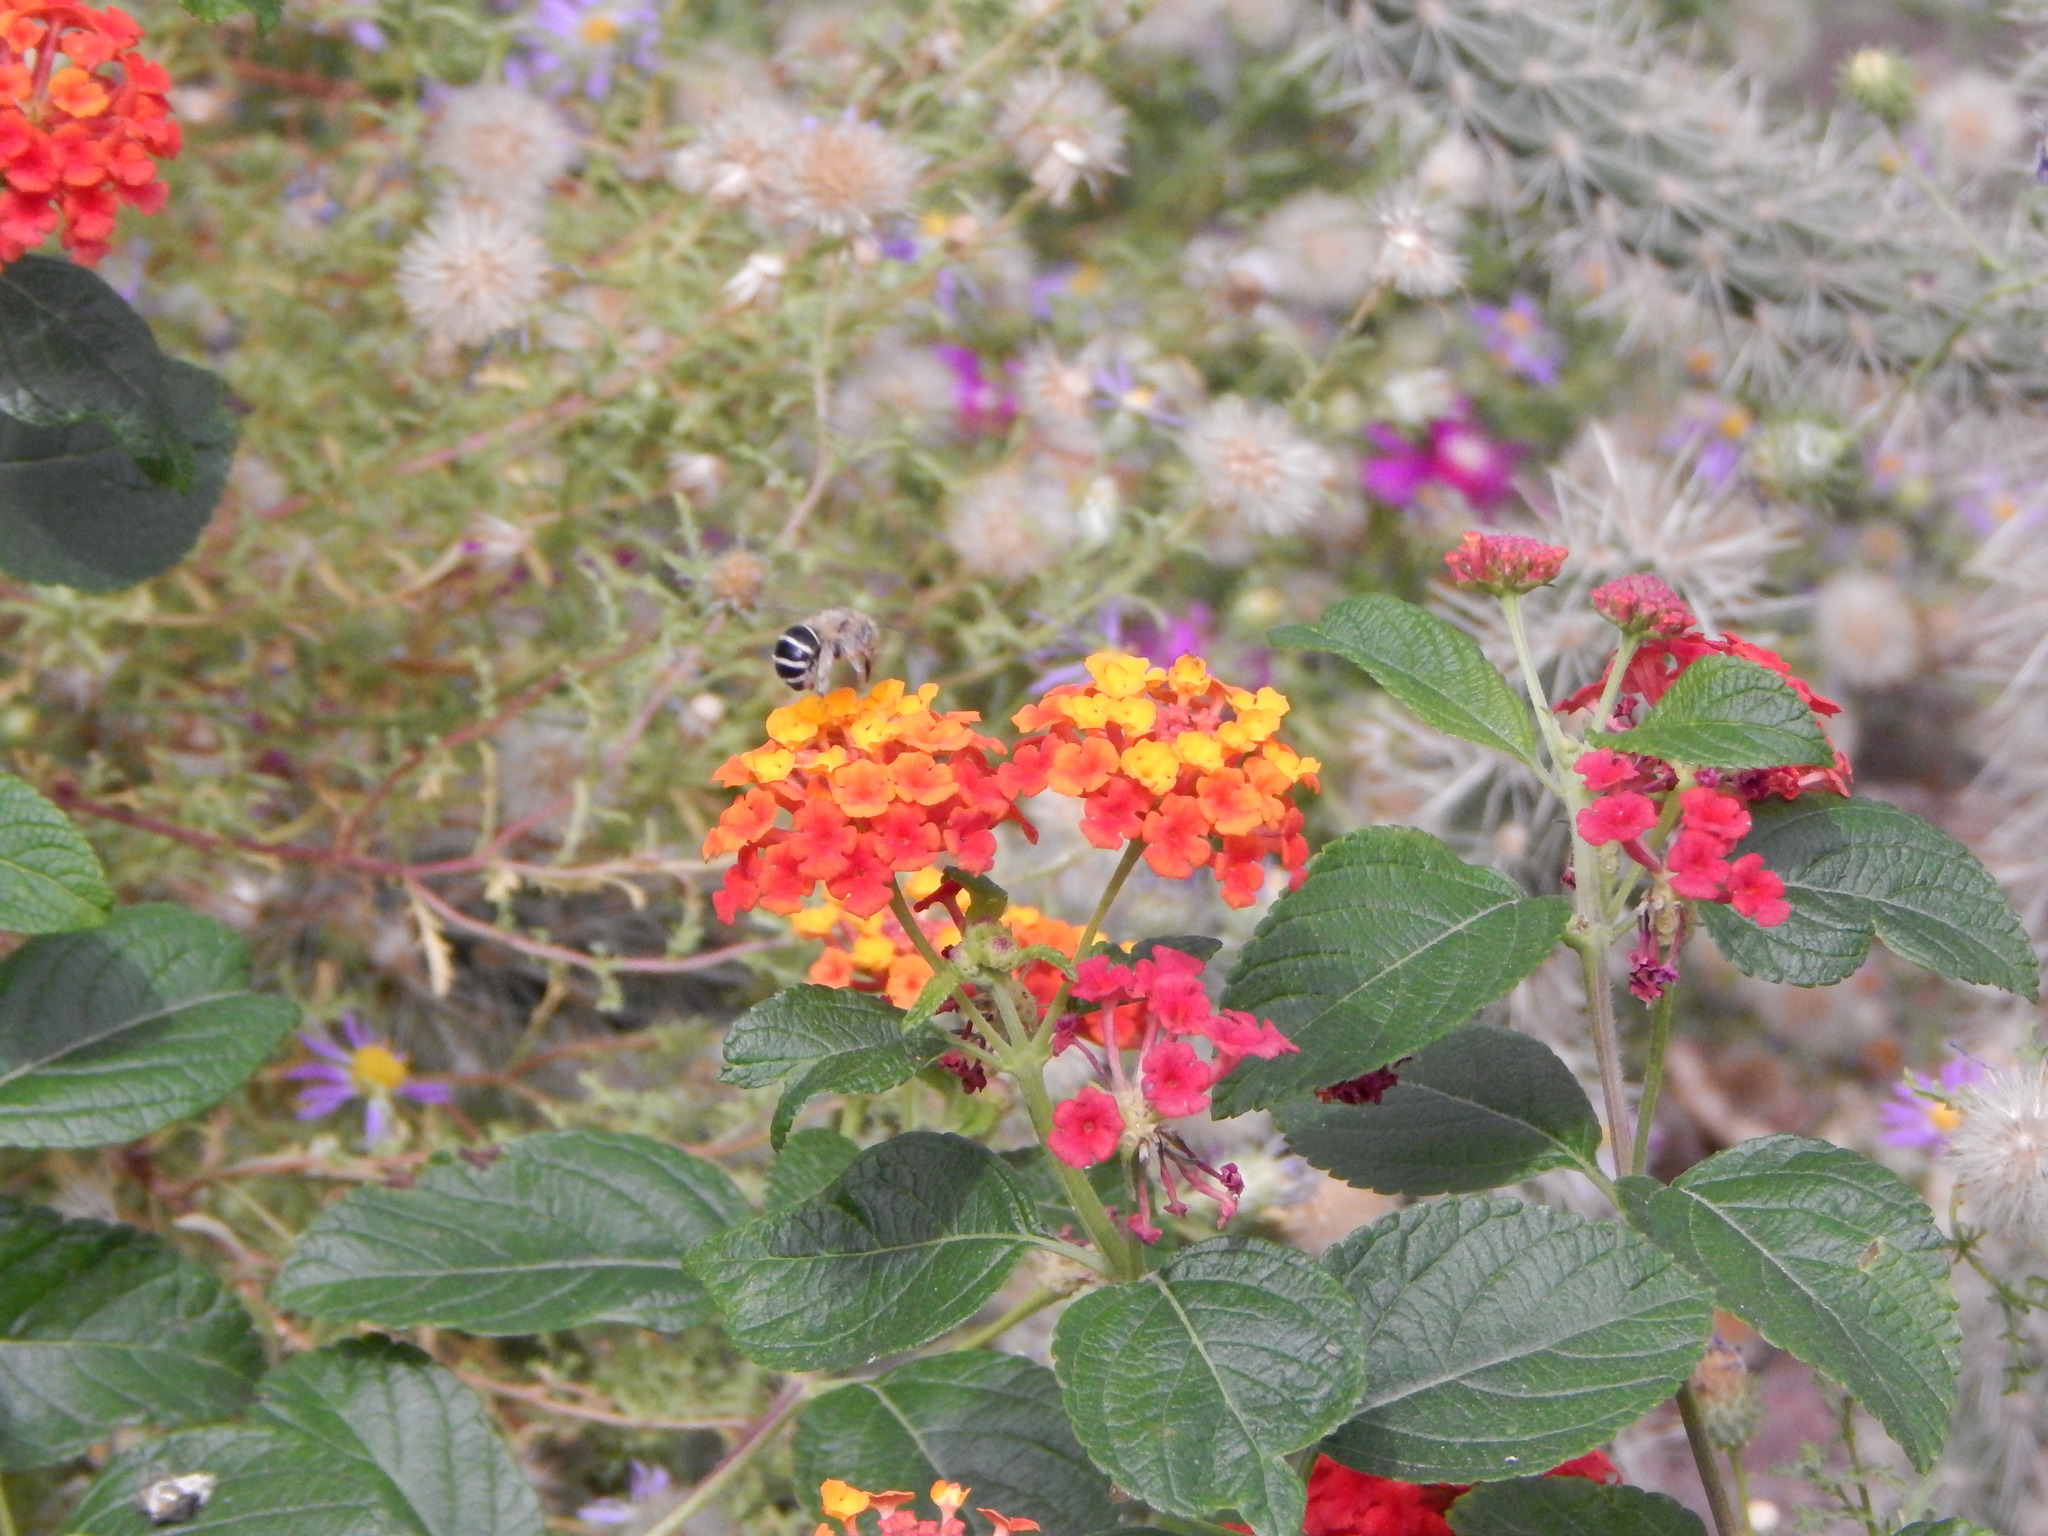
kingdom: Animalia
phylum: Arthropoda
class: Insecta
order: Hymenoptera
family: Apidae
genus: Anthophora
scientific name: Anthophora californica
